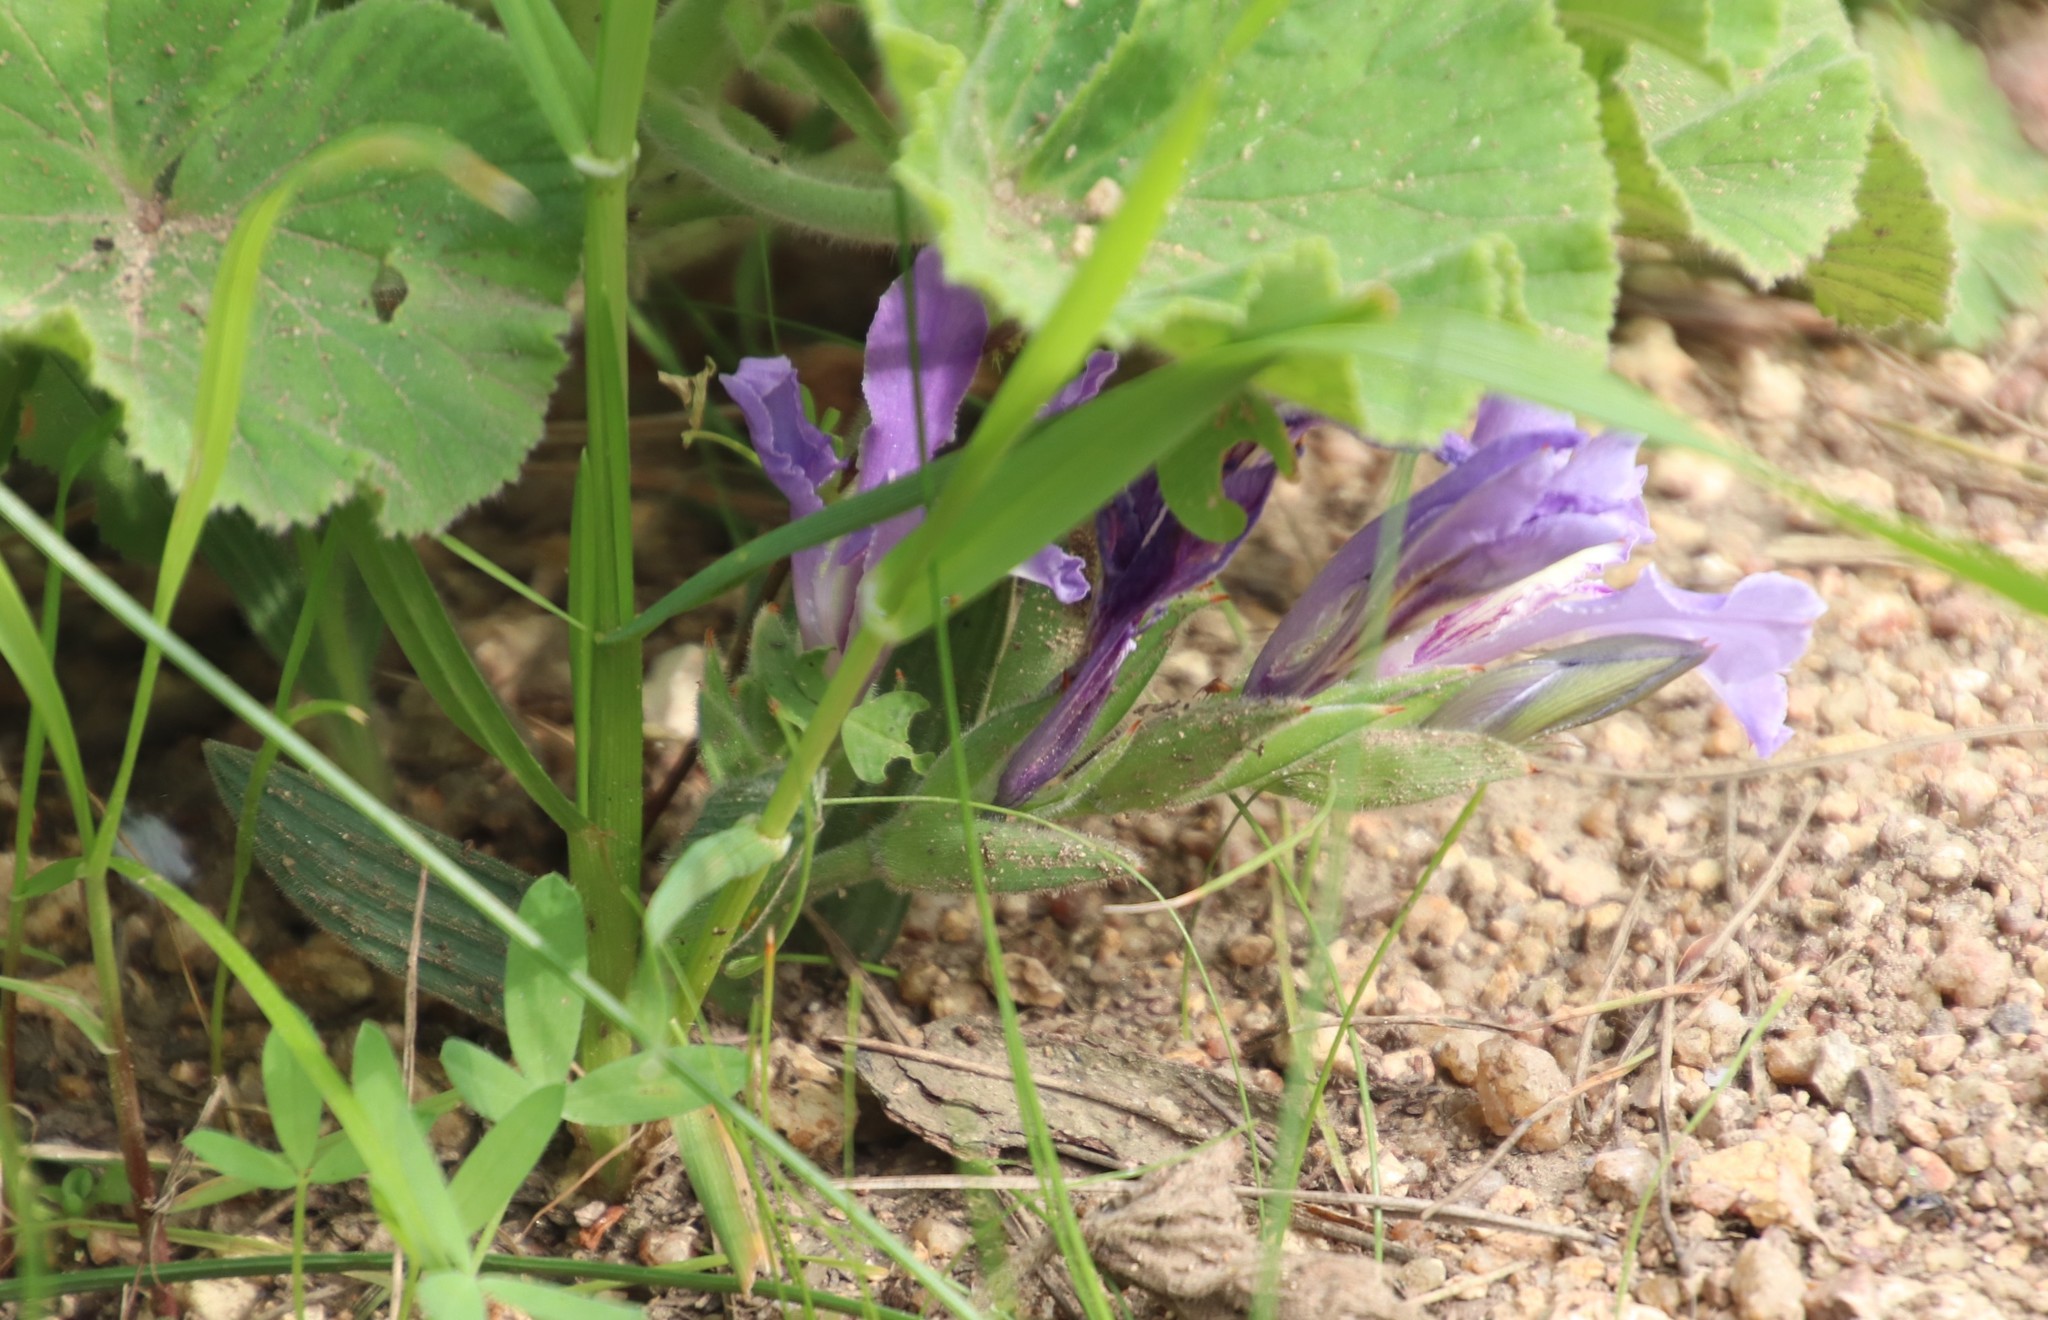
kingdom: Plantae
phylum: Tracheophyta
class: Liliopsida
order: Asparagales
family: Iridaceae
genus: Babiana
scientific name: Babiana ambigua
